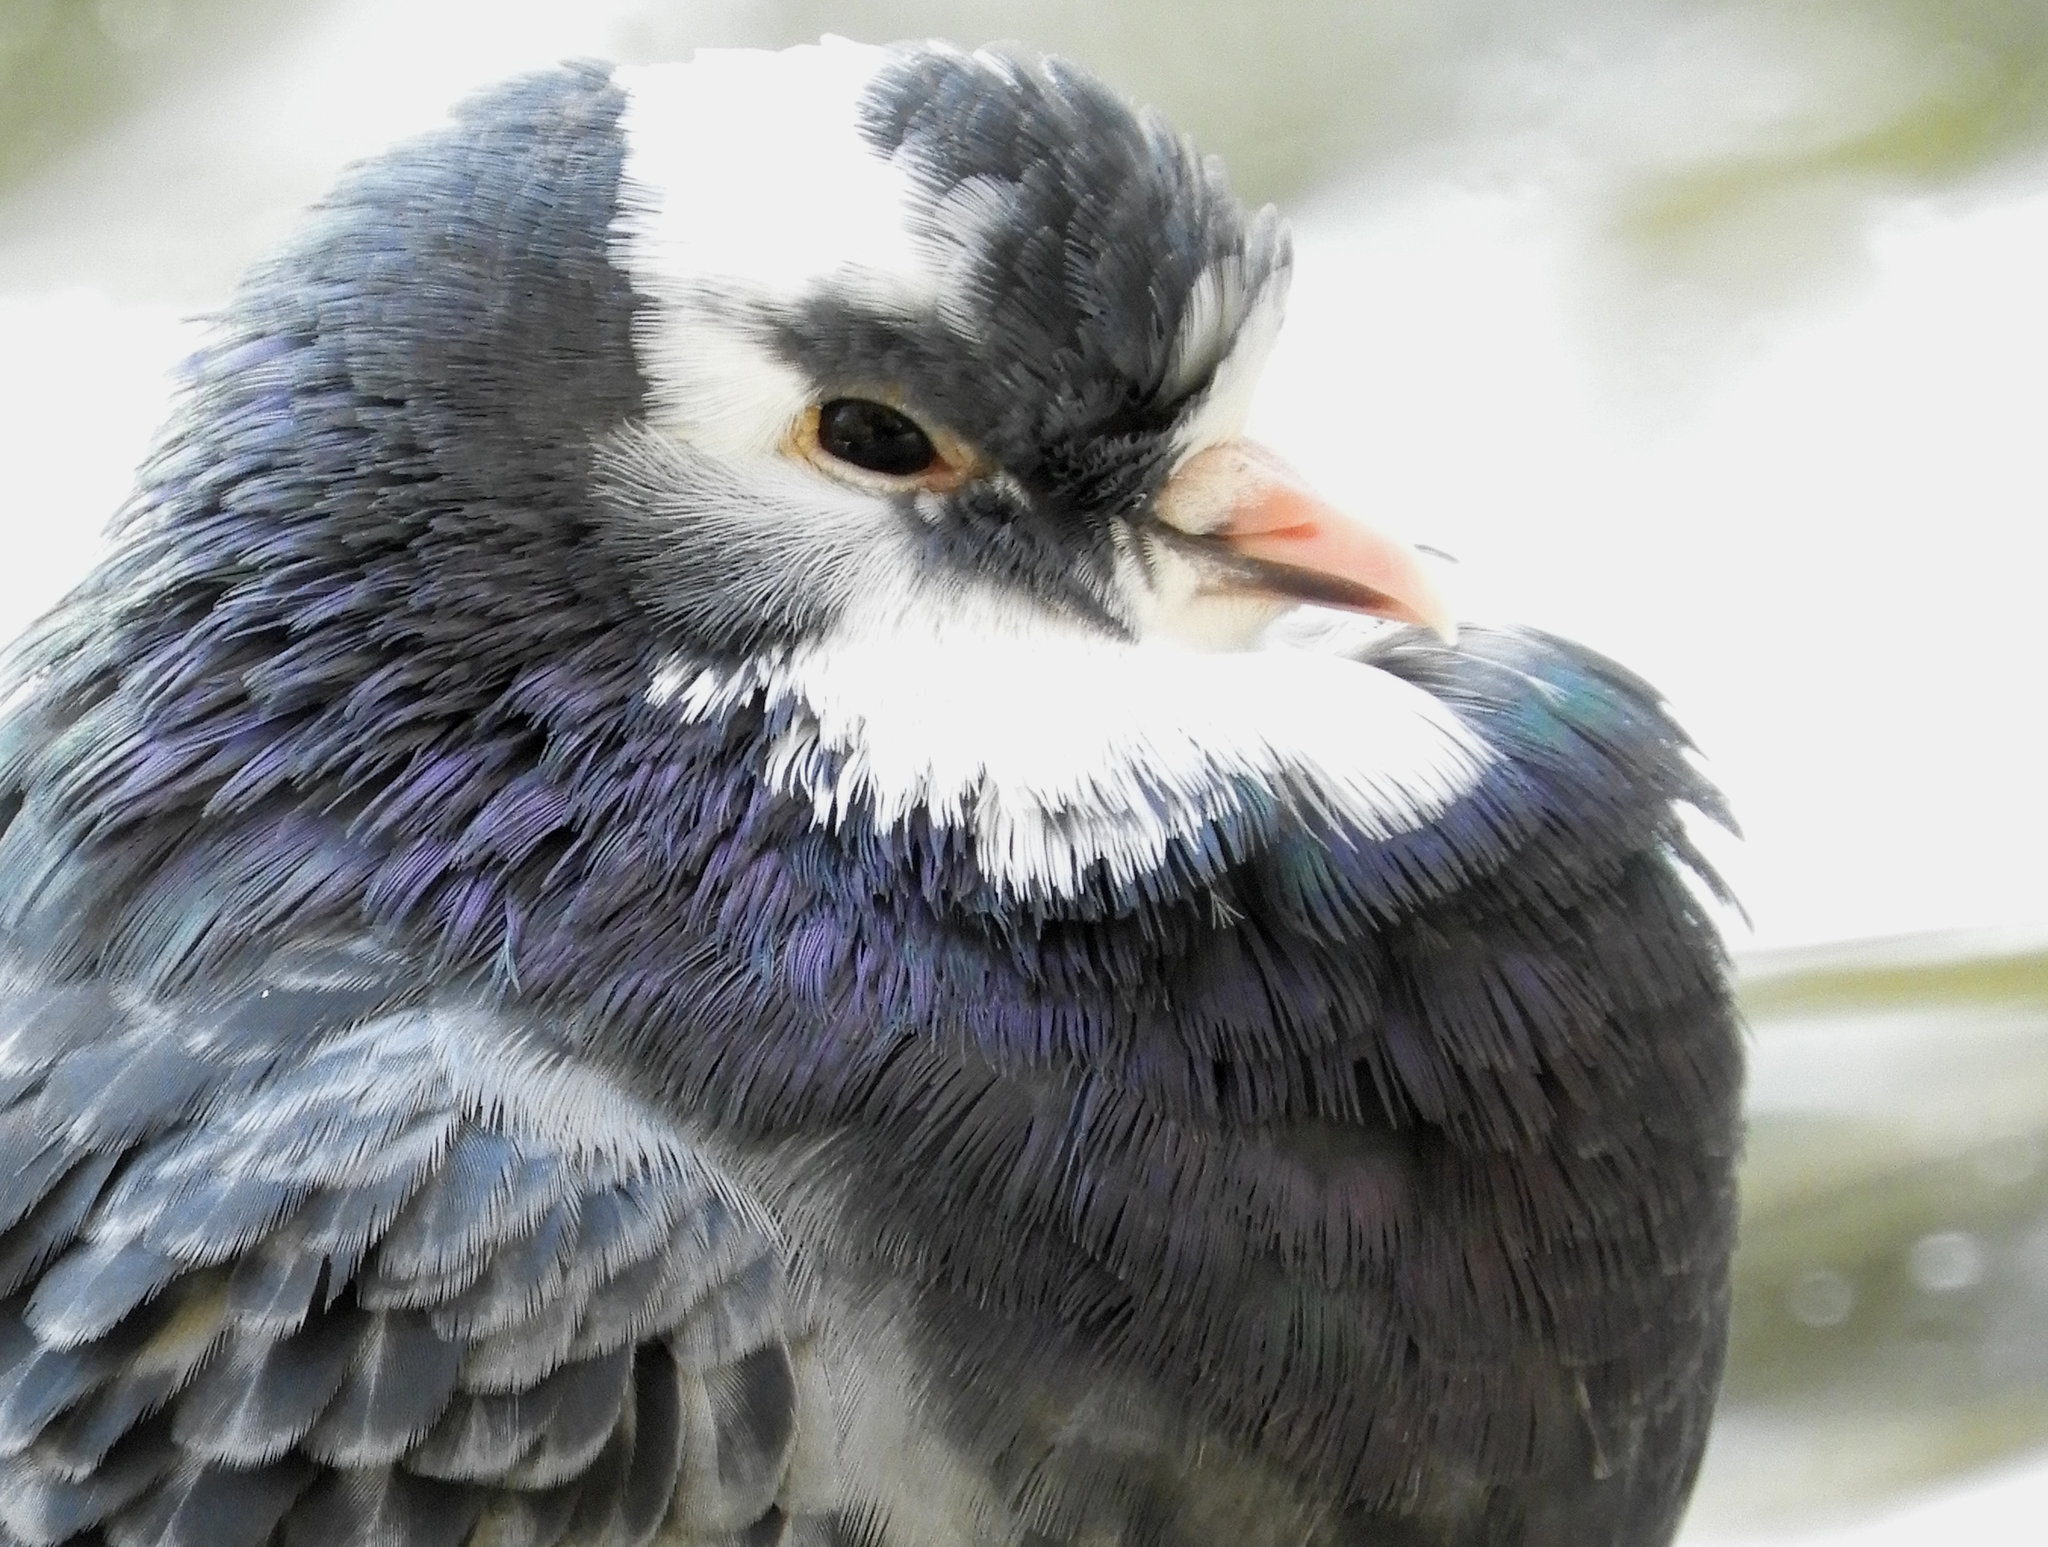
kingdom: Animalia
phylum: Chordata
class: Aves
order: Columbiformes
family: Columbidae
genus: Columba
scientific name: Columba livia
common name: Rock pigeon
